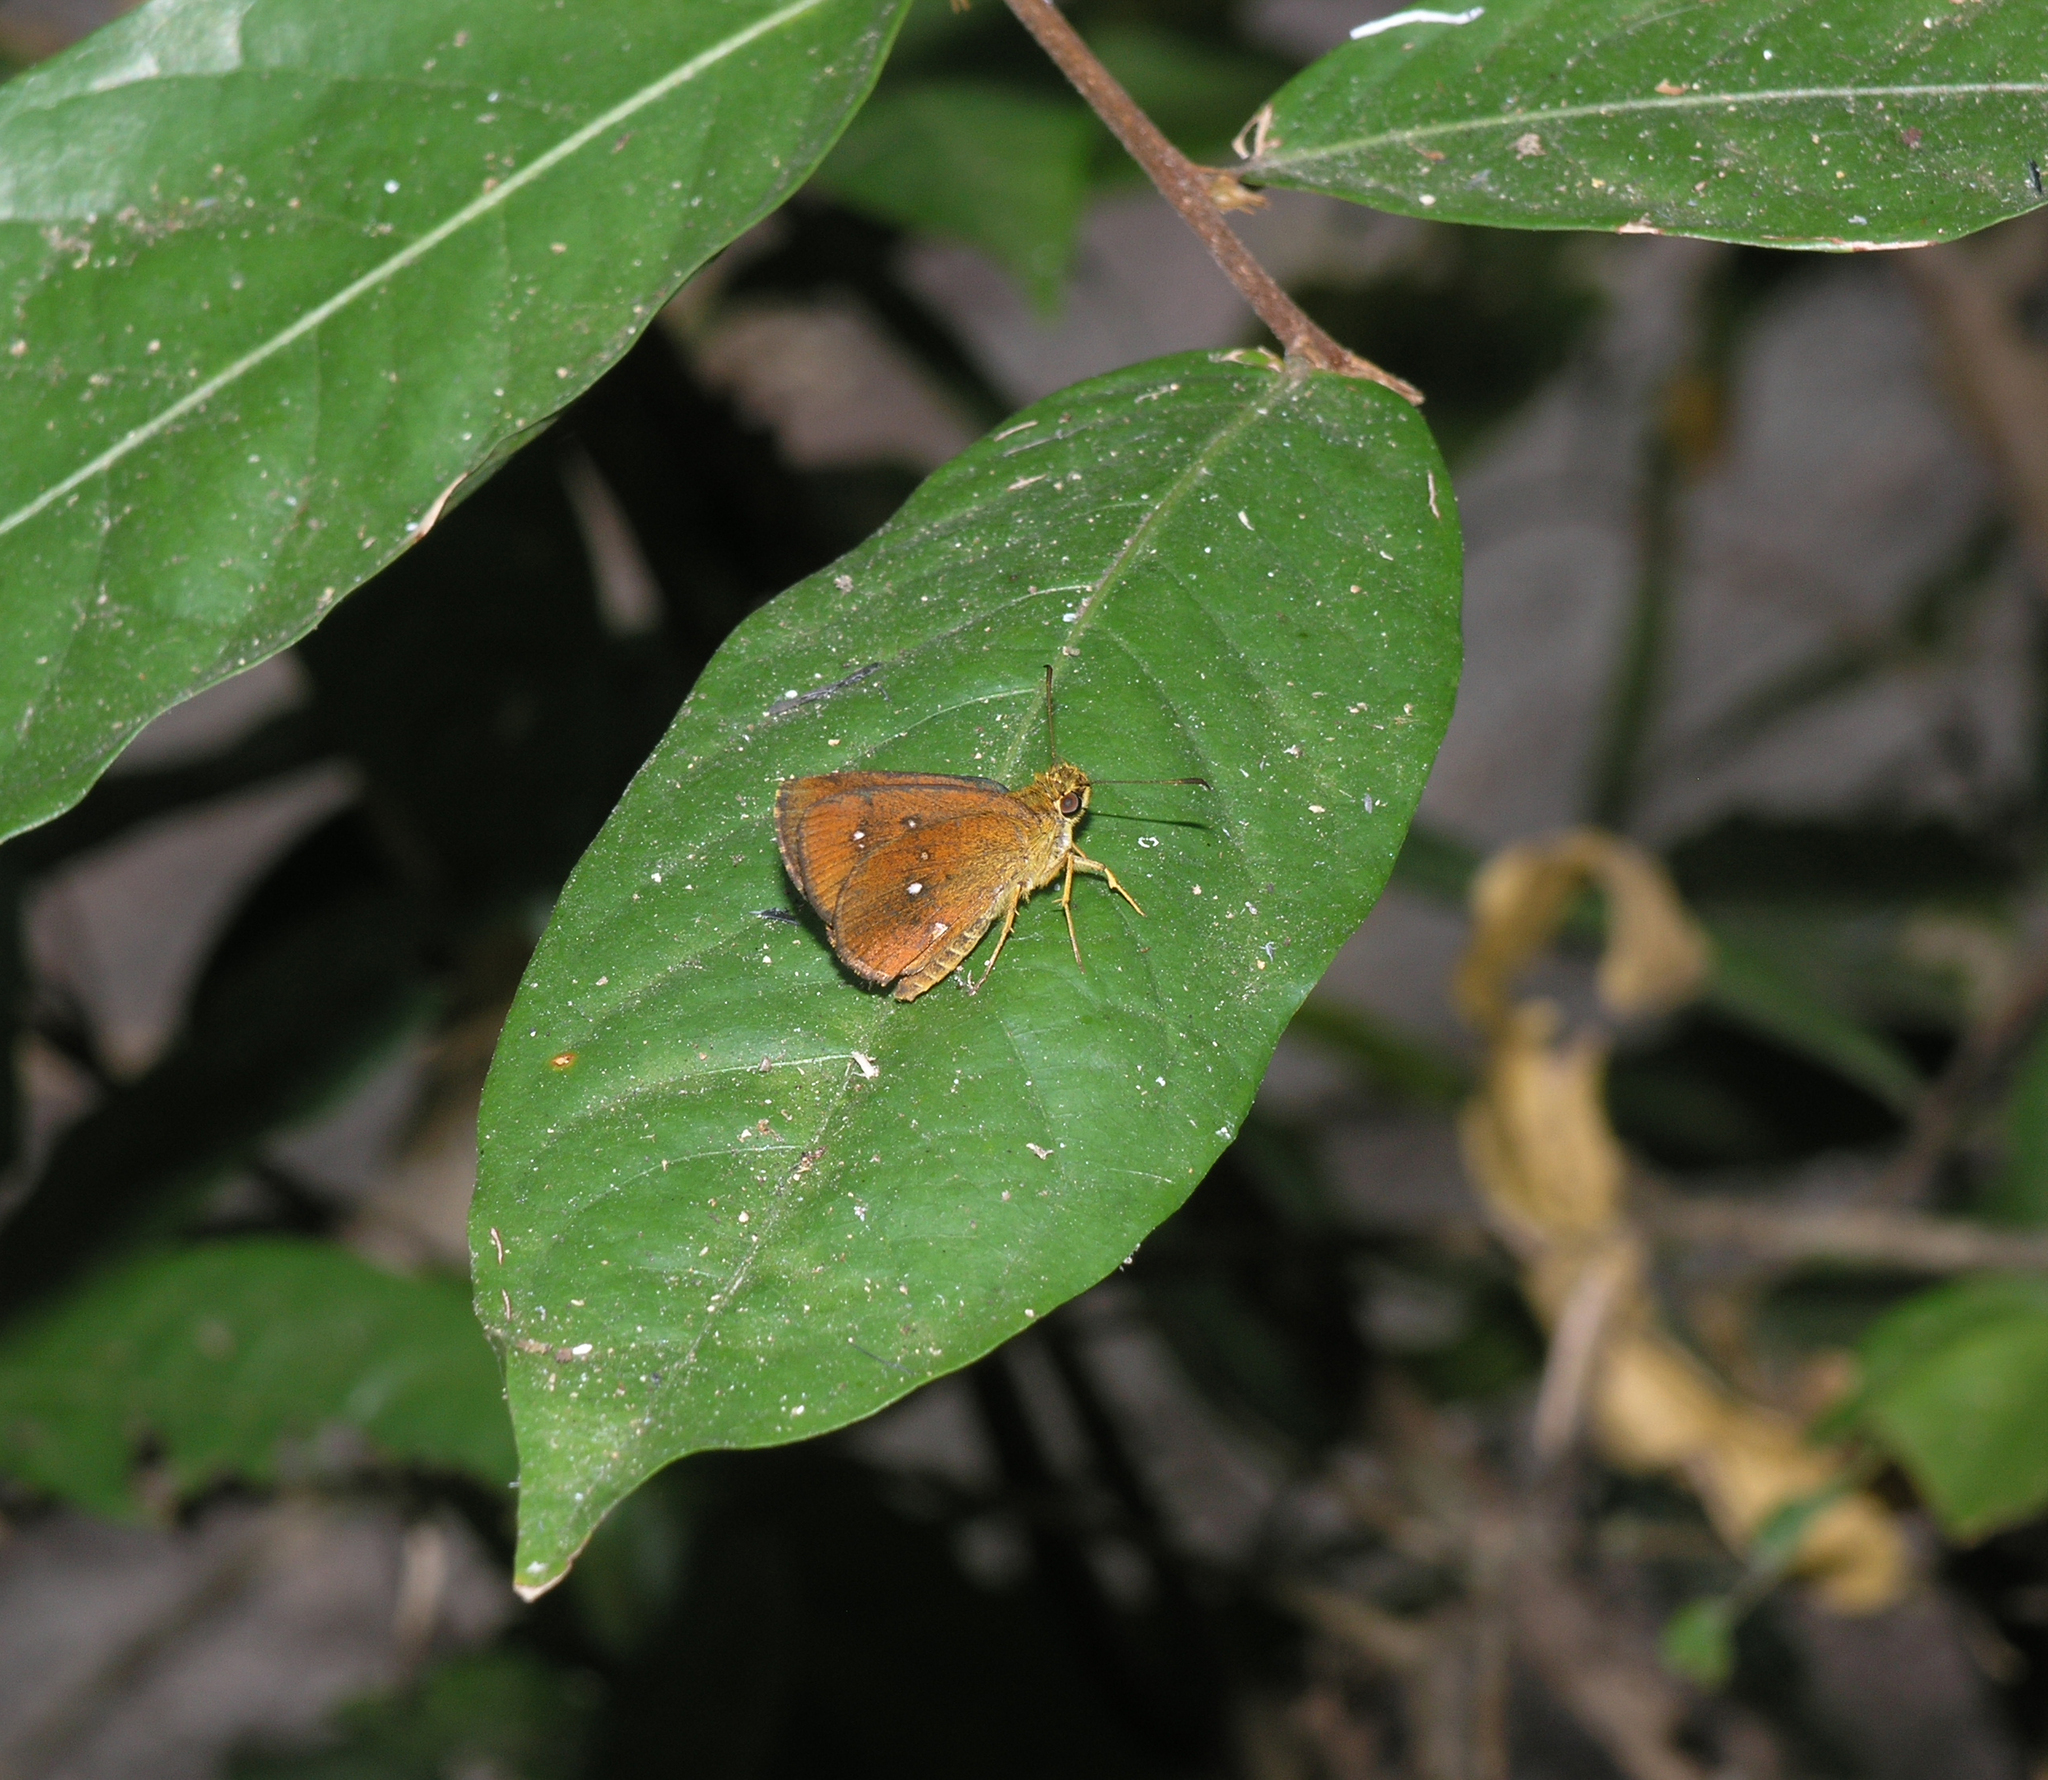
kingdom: Animalia
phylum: Arthropoda
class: Insecta
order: Lepidoptera
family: Hesperiidae
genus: Iambrix
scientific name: Iambrix salsala
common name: Chestnut bob
